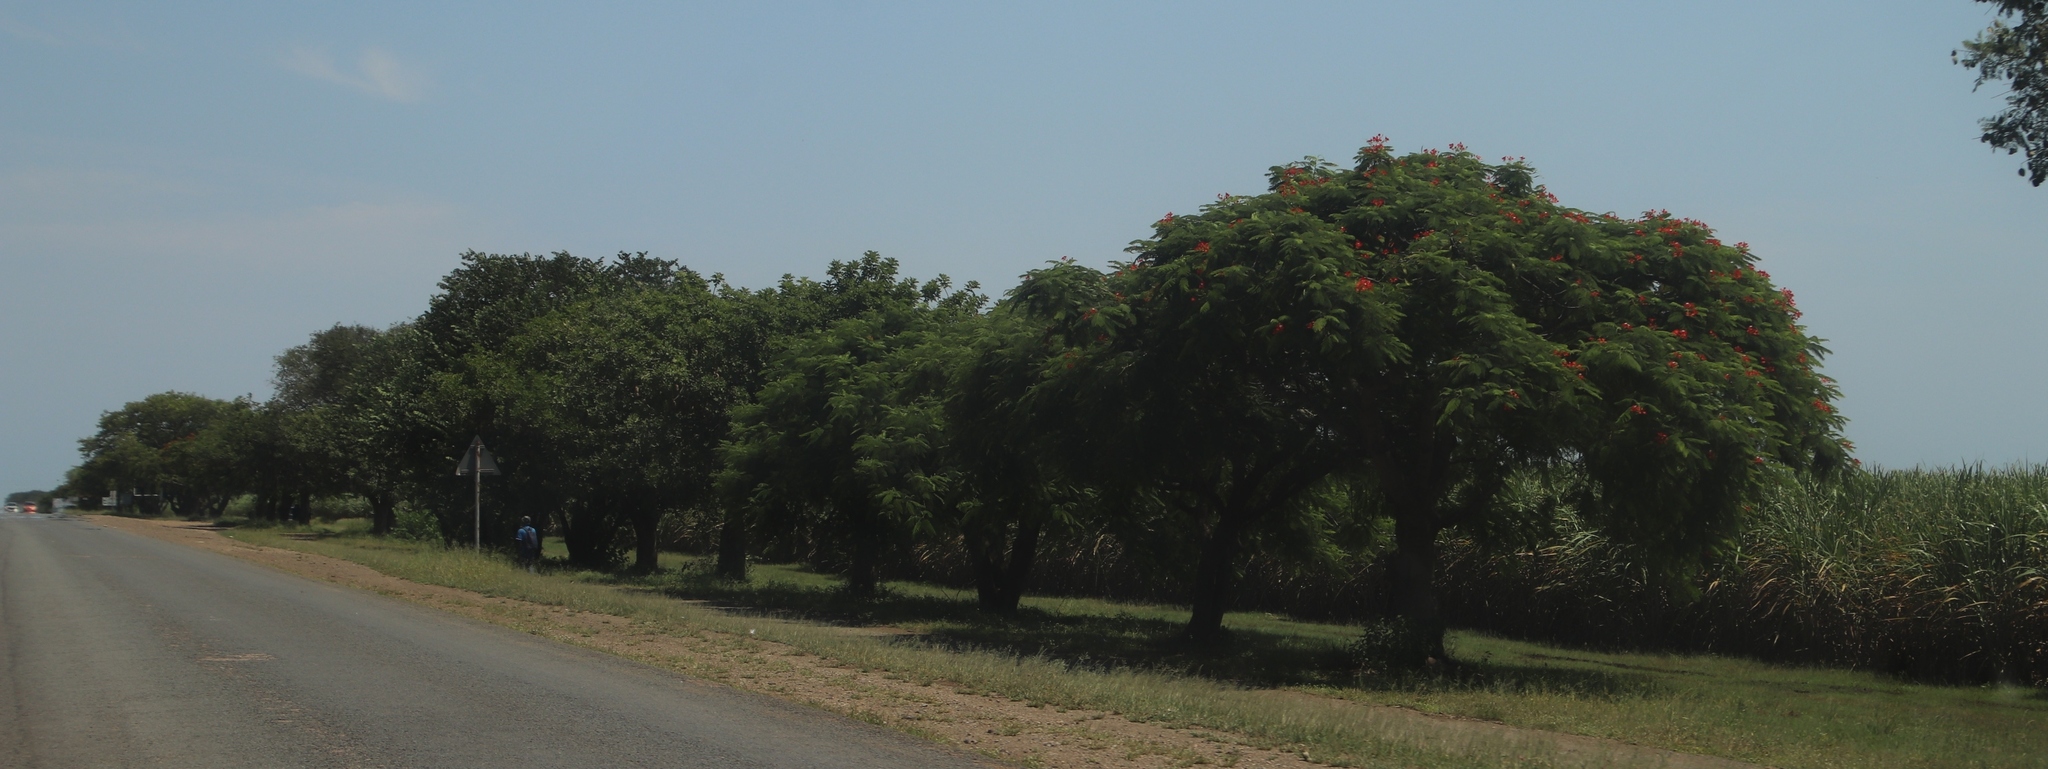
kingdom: Plantae
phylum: Tracheophyta
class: Magnoliopsida
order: Fabales
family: Fabaceae
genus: Delonix
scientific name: Delonix regia
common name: Royal poinciana
